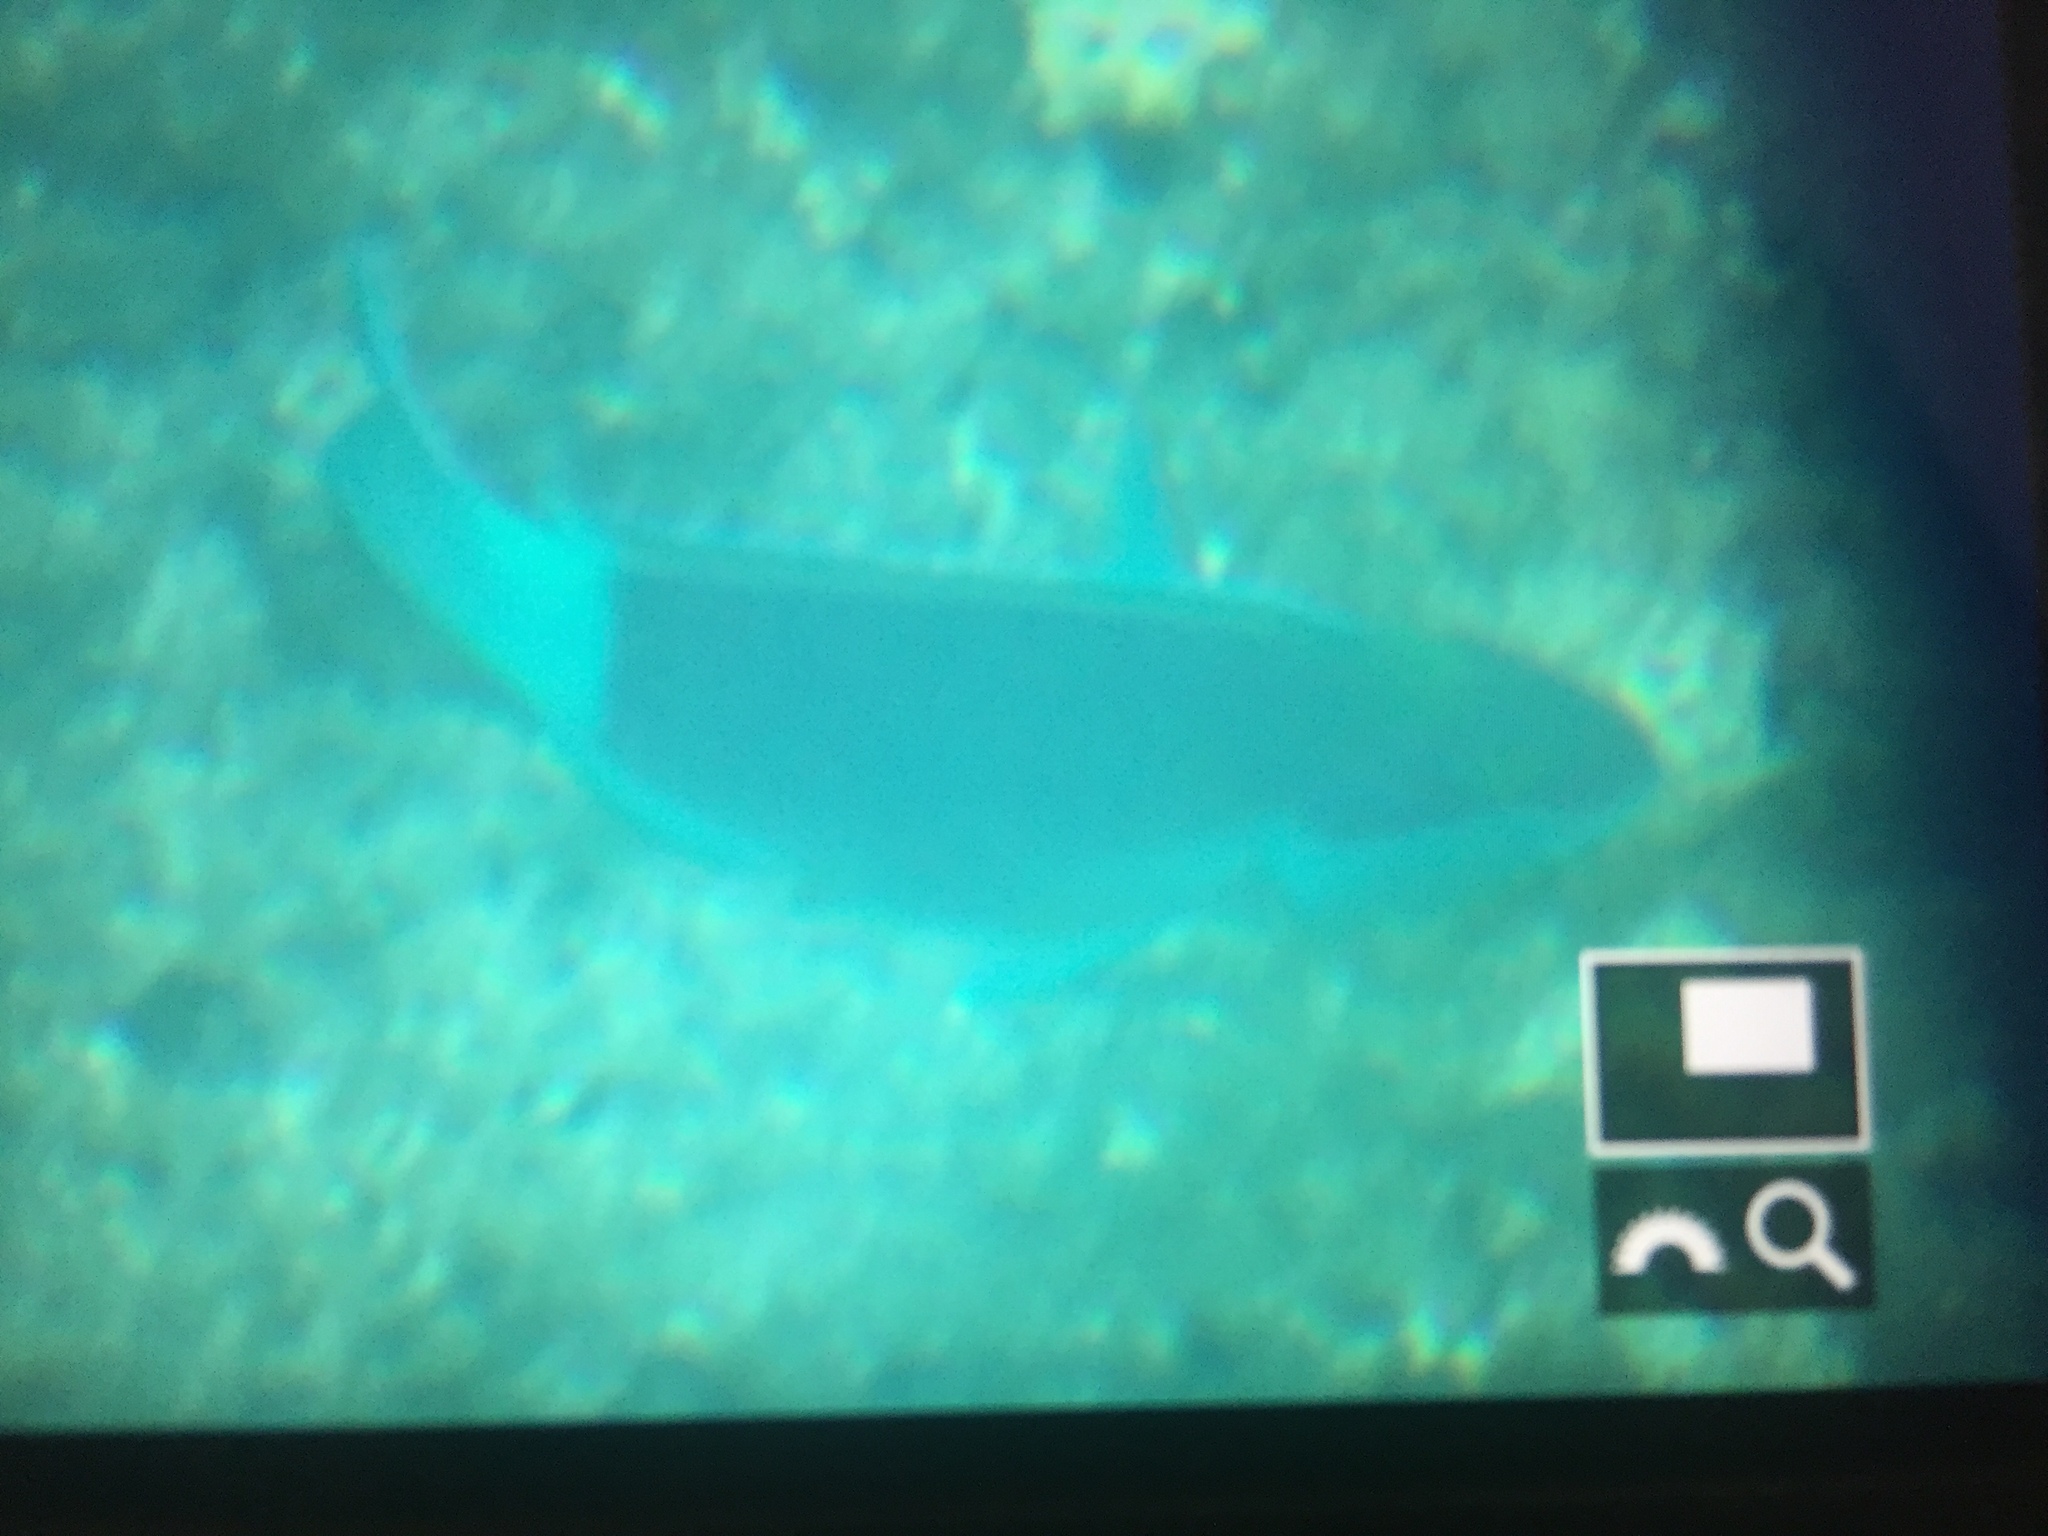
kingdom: Animalia
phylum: Chordata
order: Perciformes
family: Scaridae
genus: Scarus
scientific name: Scarus frenatus
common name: Bridled parrotfish
